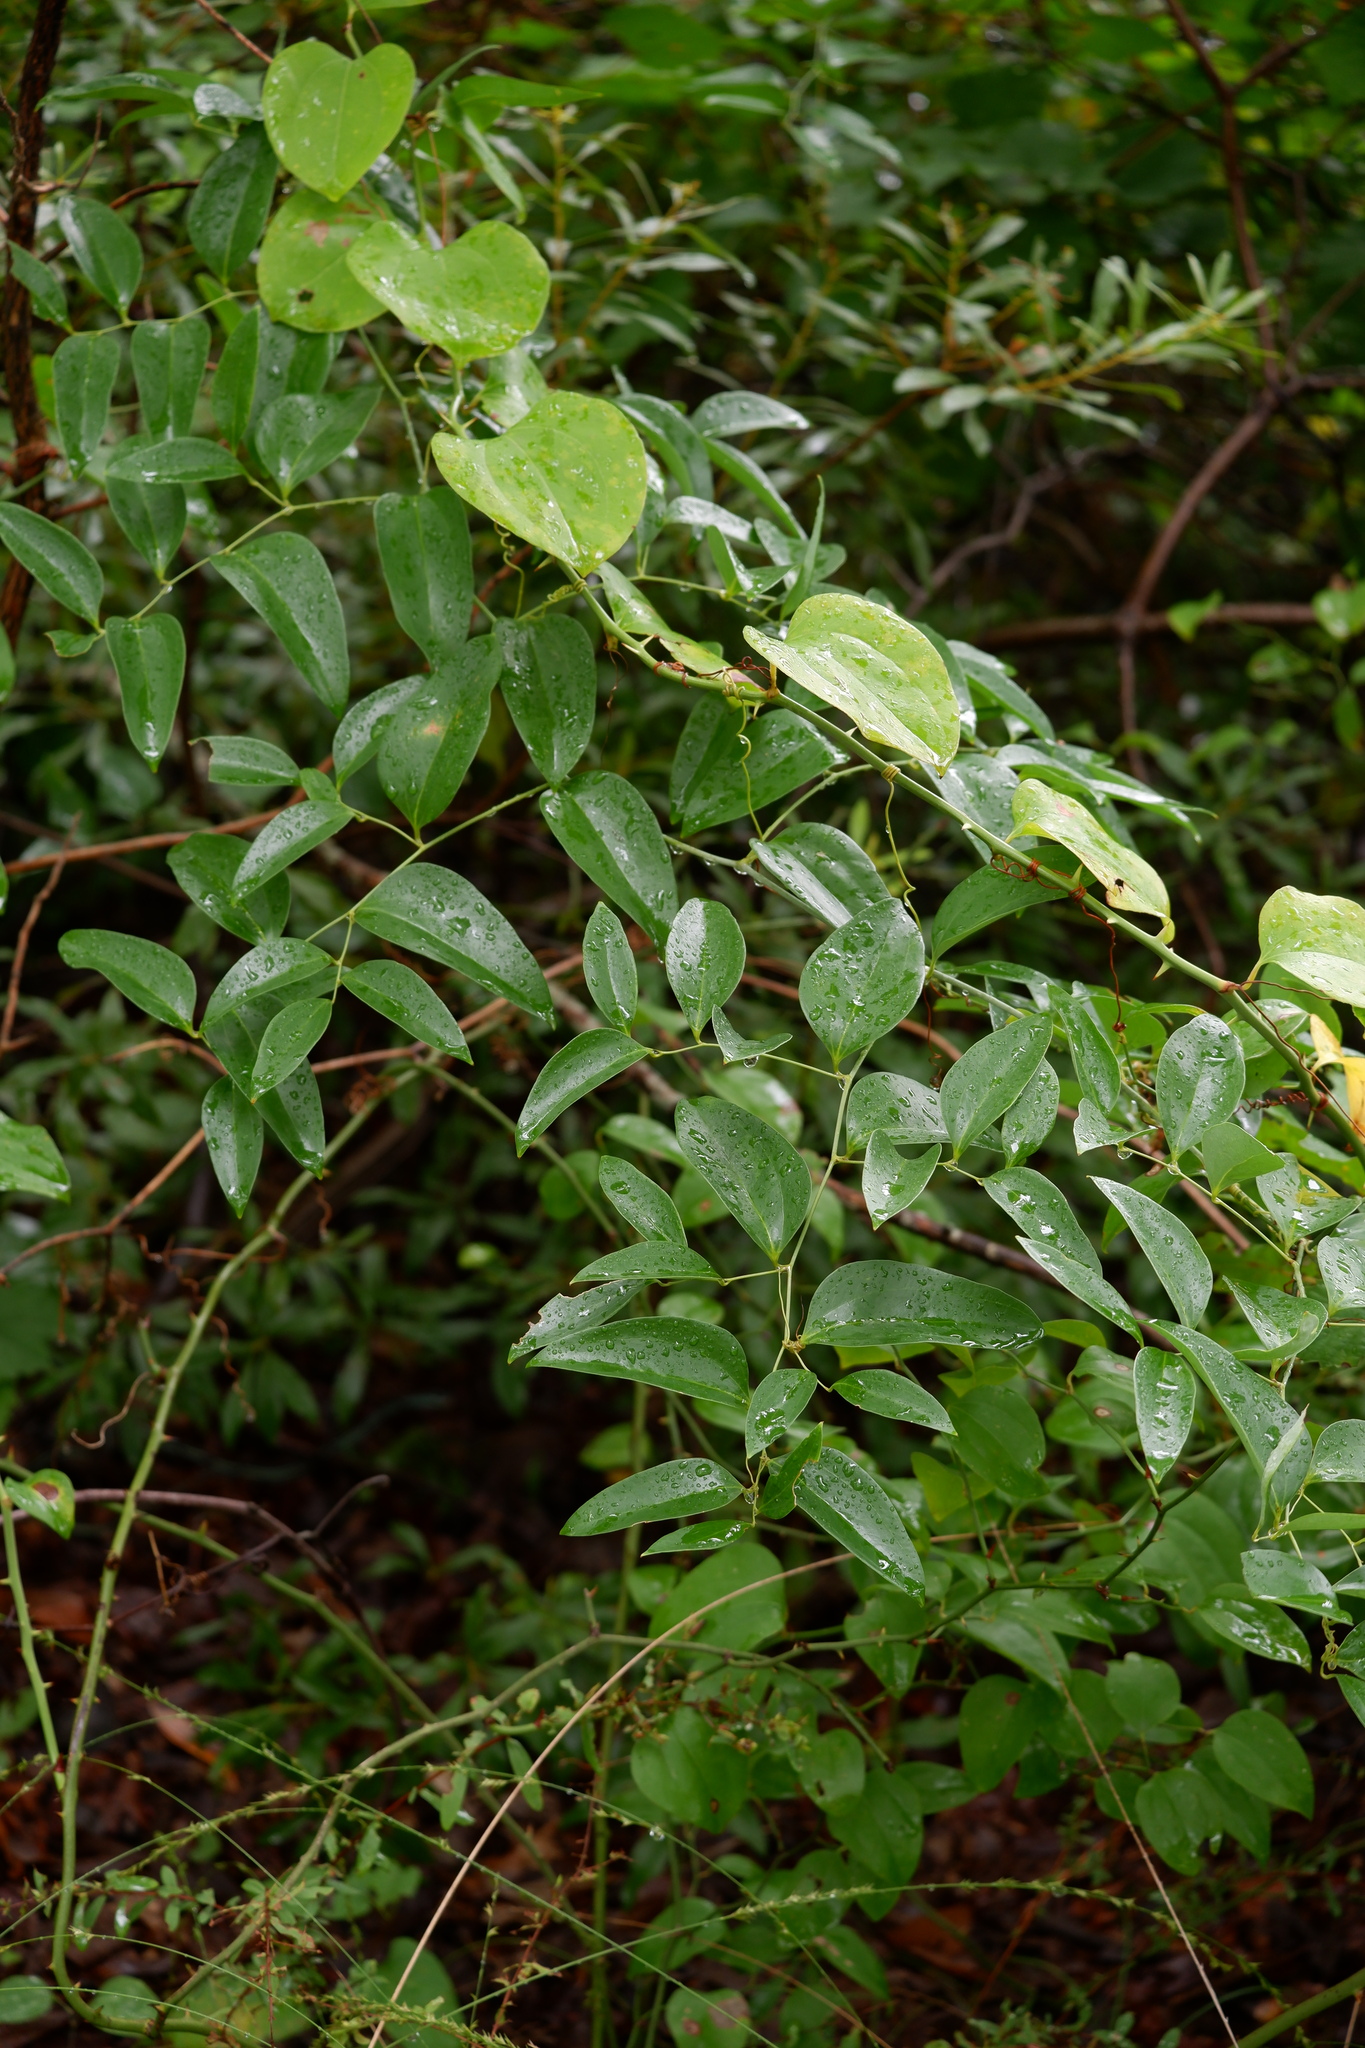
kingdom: Plantae
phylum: Tracheophyta
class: Liliopsida
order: Liliales
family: Smilacaceae
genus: Smilax
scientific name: Smilax maritima
